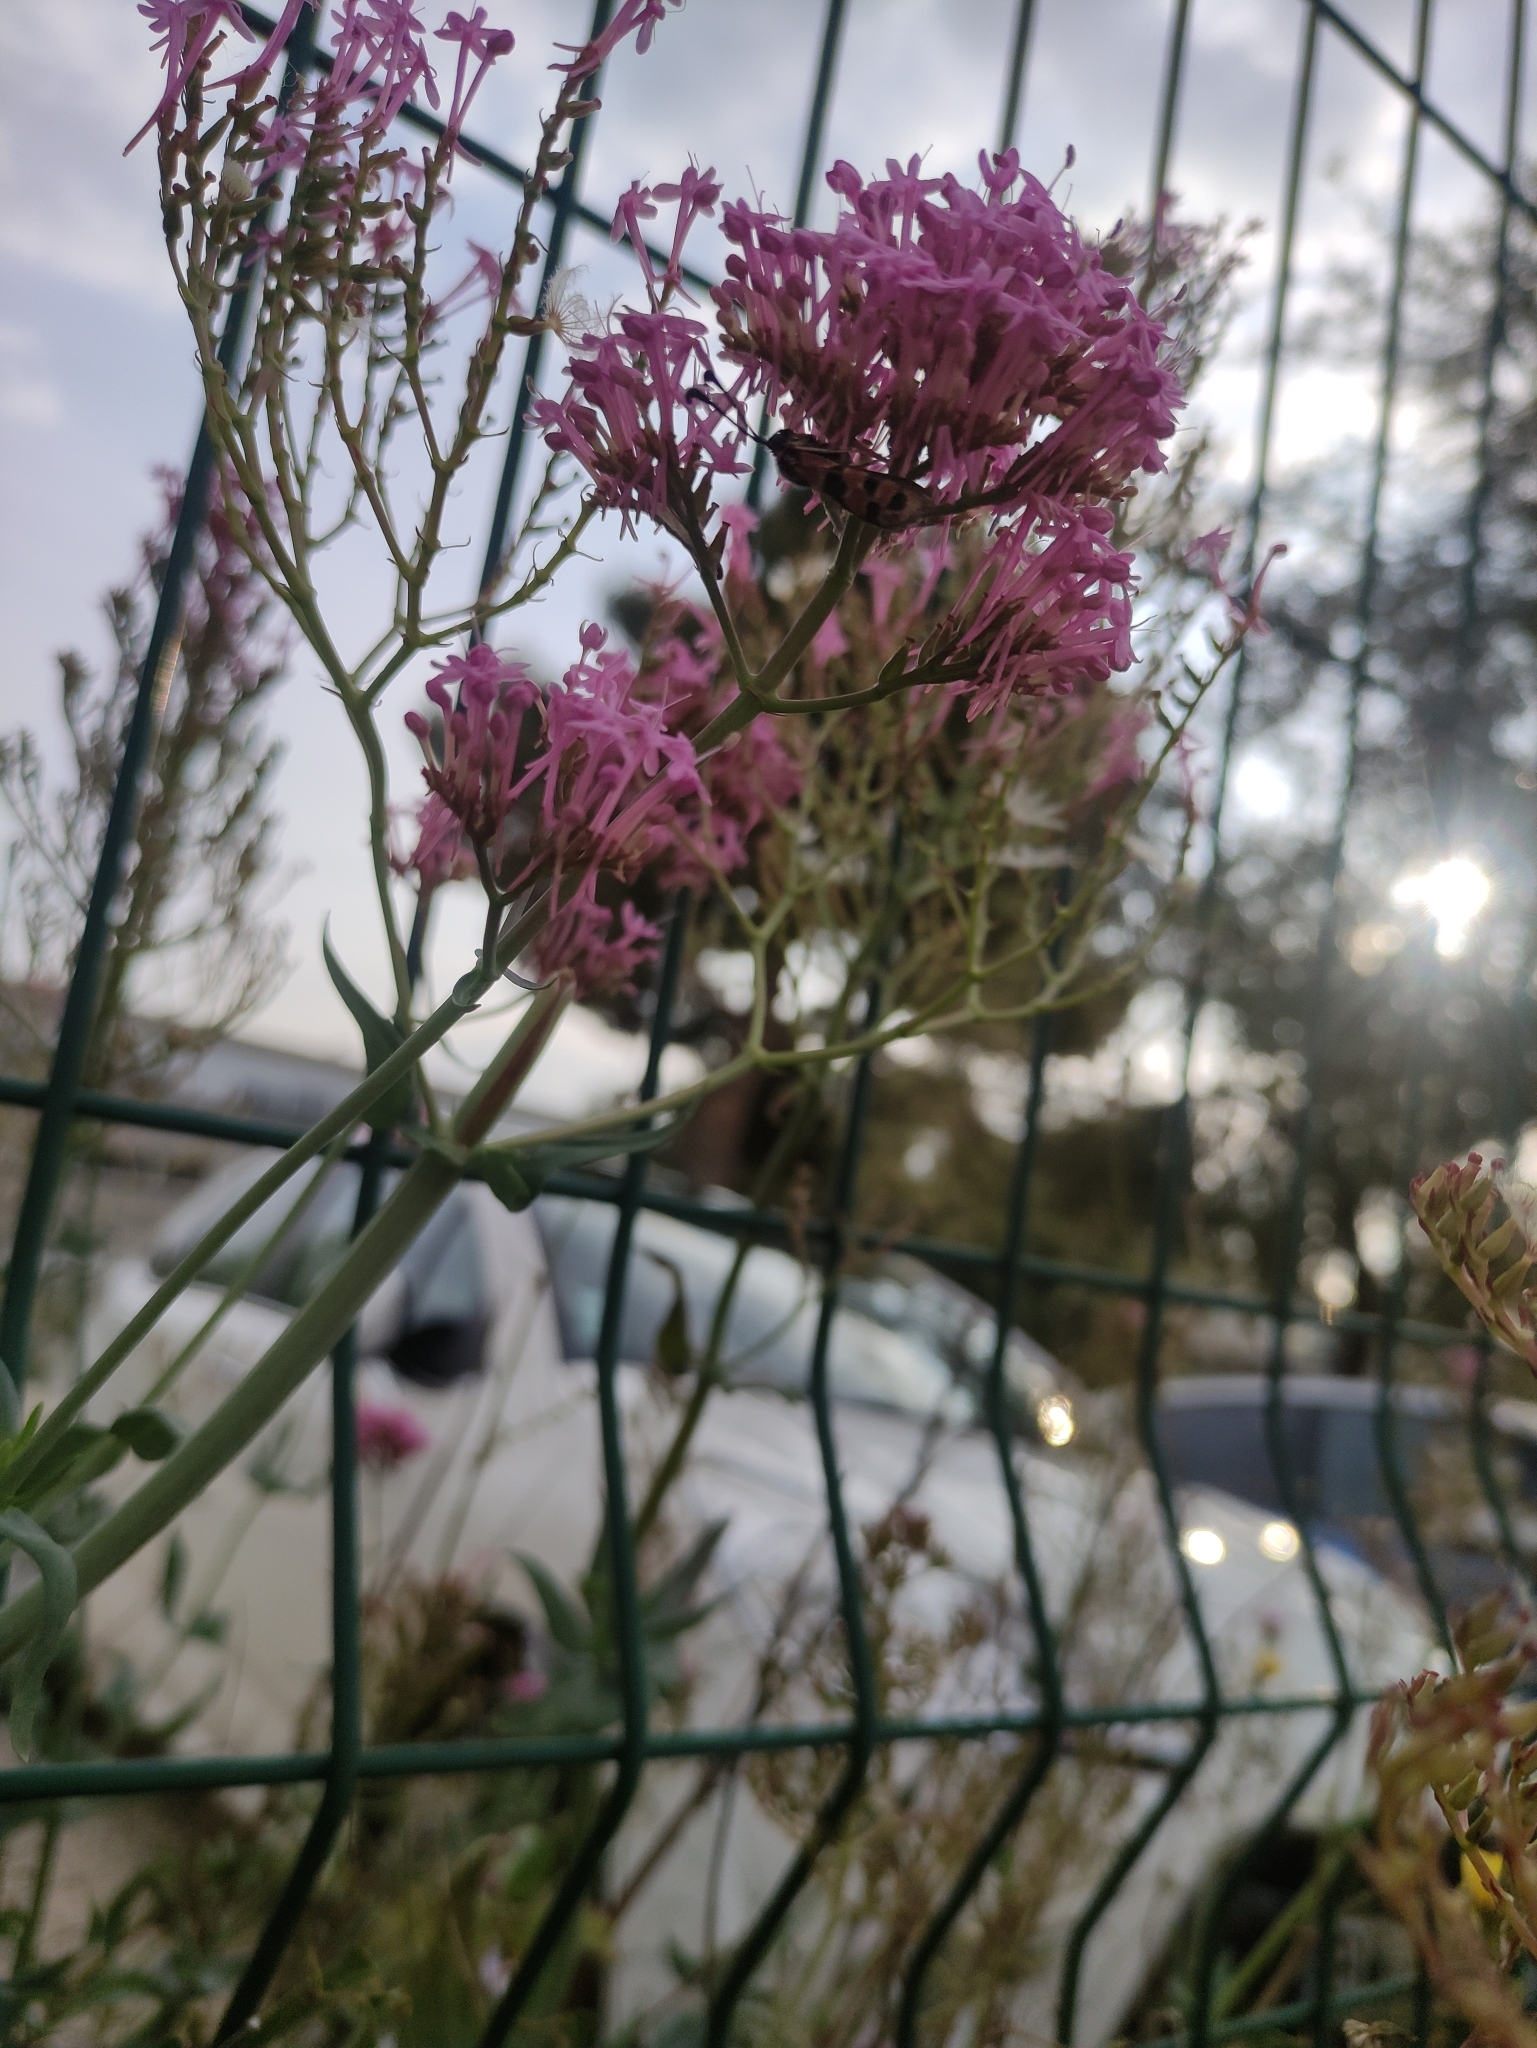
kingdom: Animalia
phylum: Arthropoda
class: Insecta
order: Lepidoptera
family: Zygaenidae
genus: Zygaena
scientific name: Zygaena fausta
